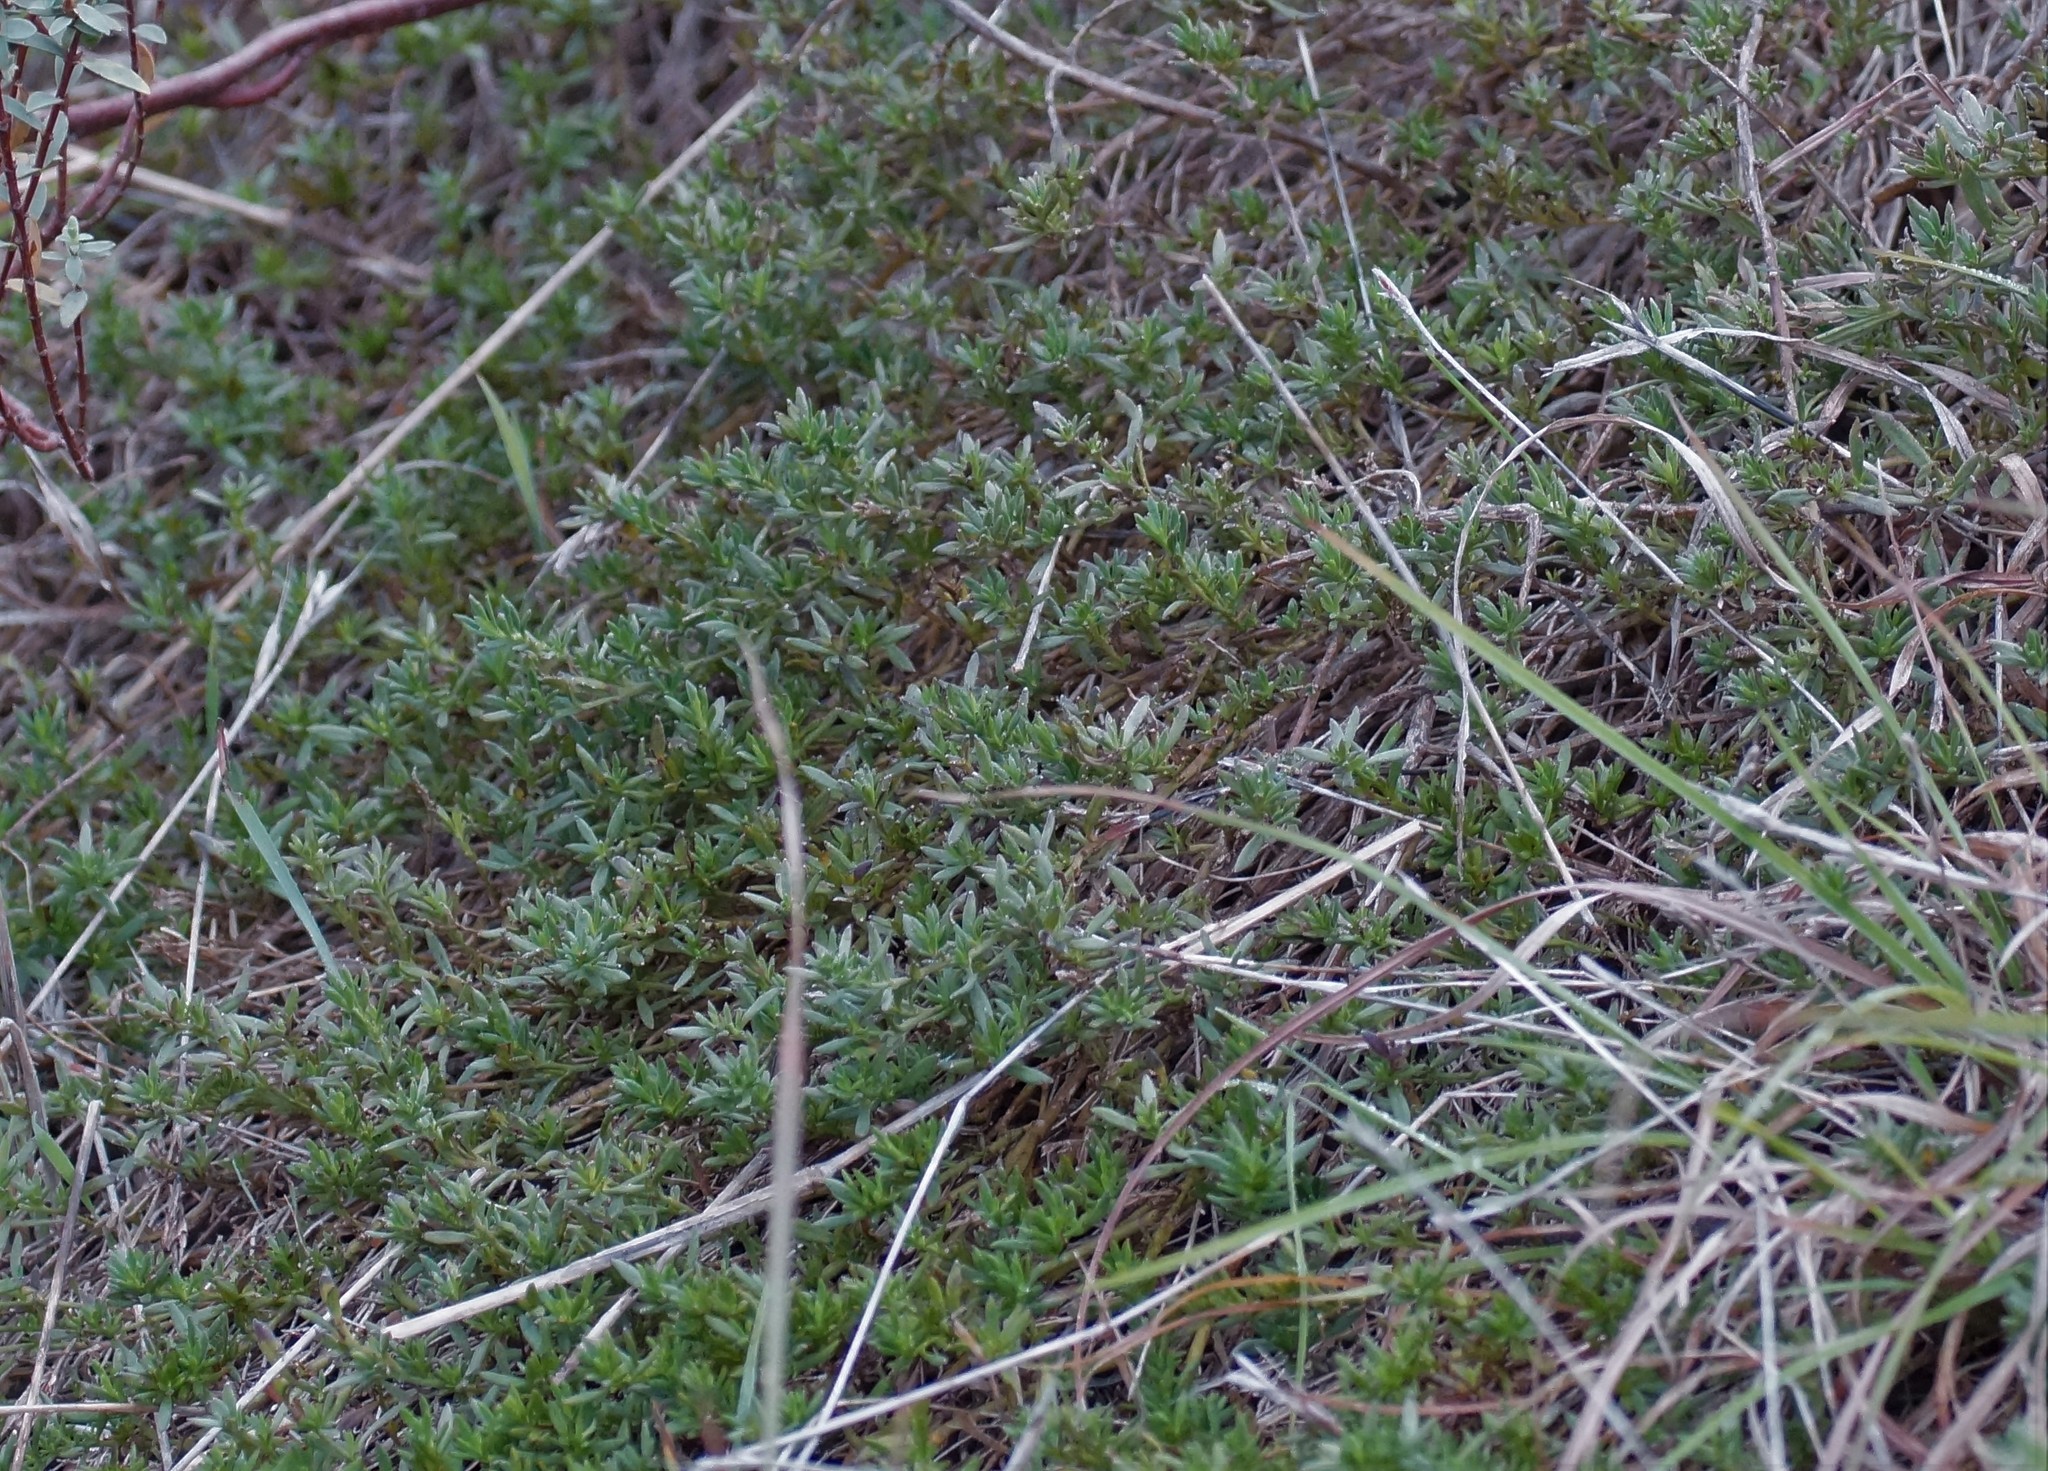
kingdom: Plantae
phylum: Tracheophyta
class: Magnoliopsida
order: Asterales
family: Goodeniaceae
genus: Scaevola
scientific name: Scaevola albida
